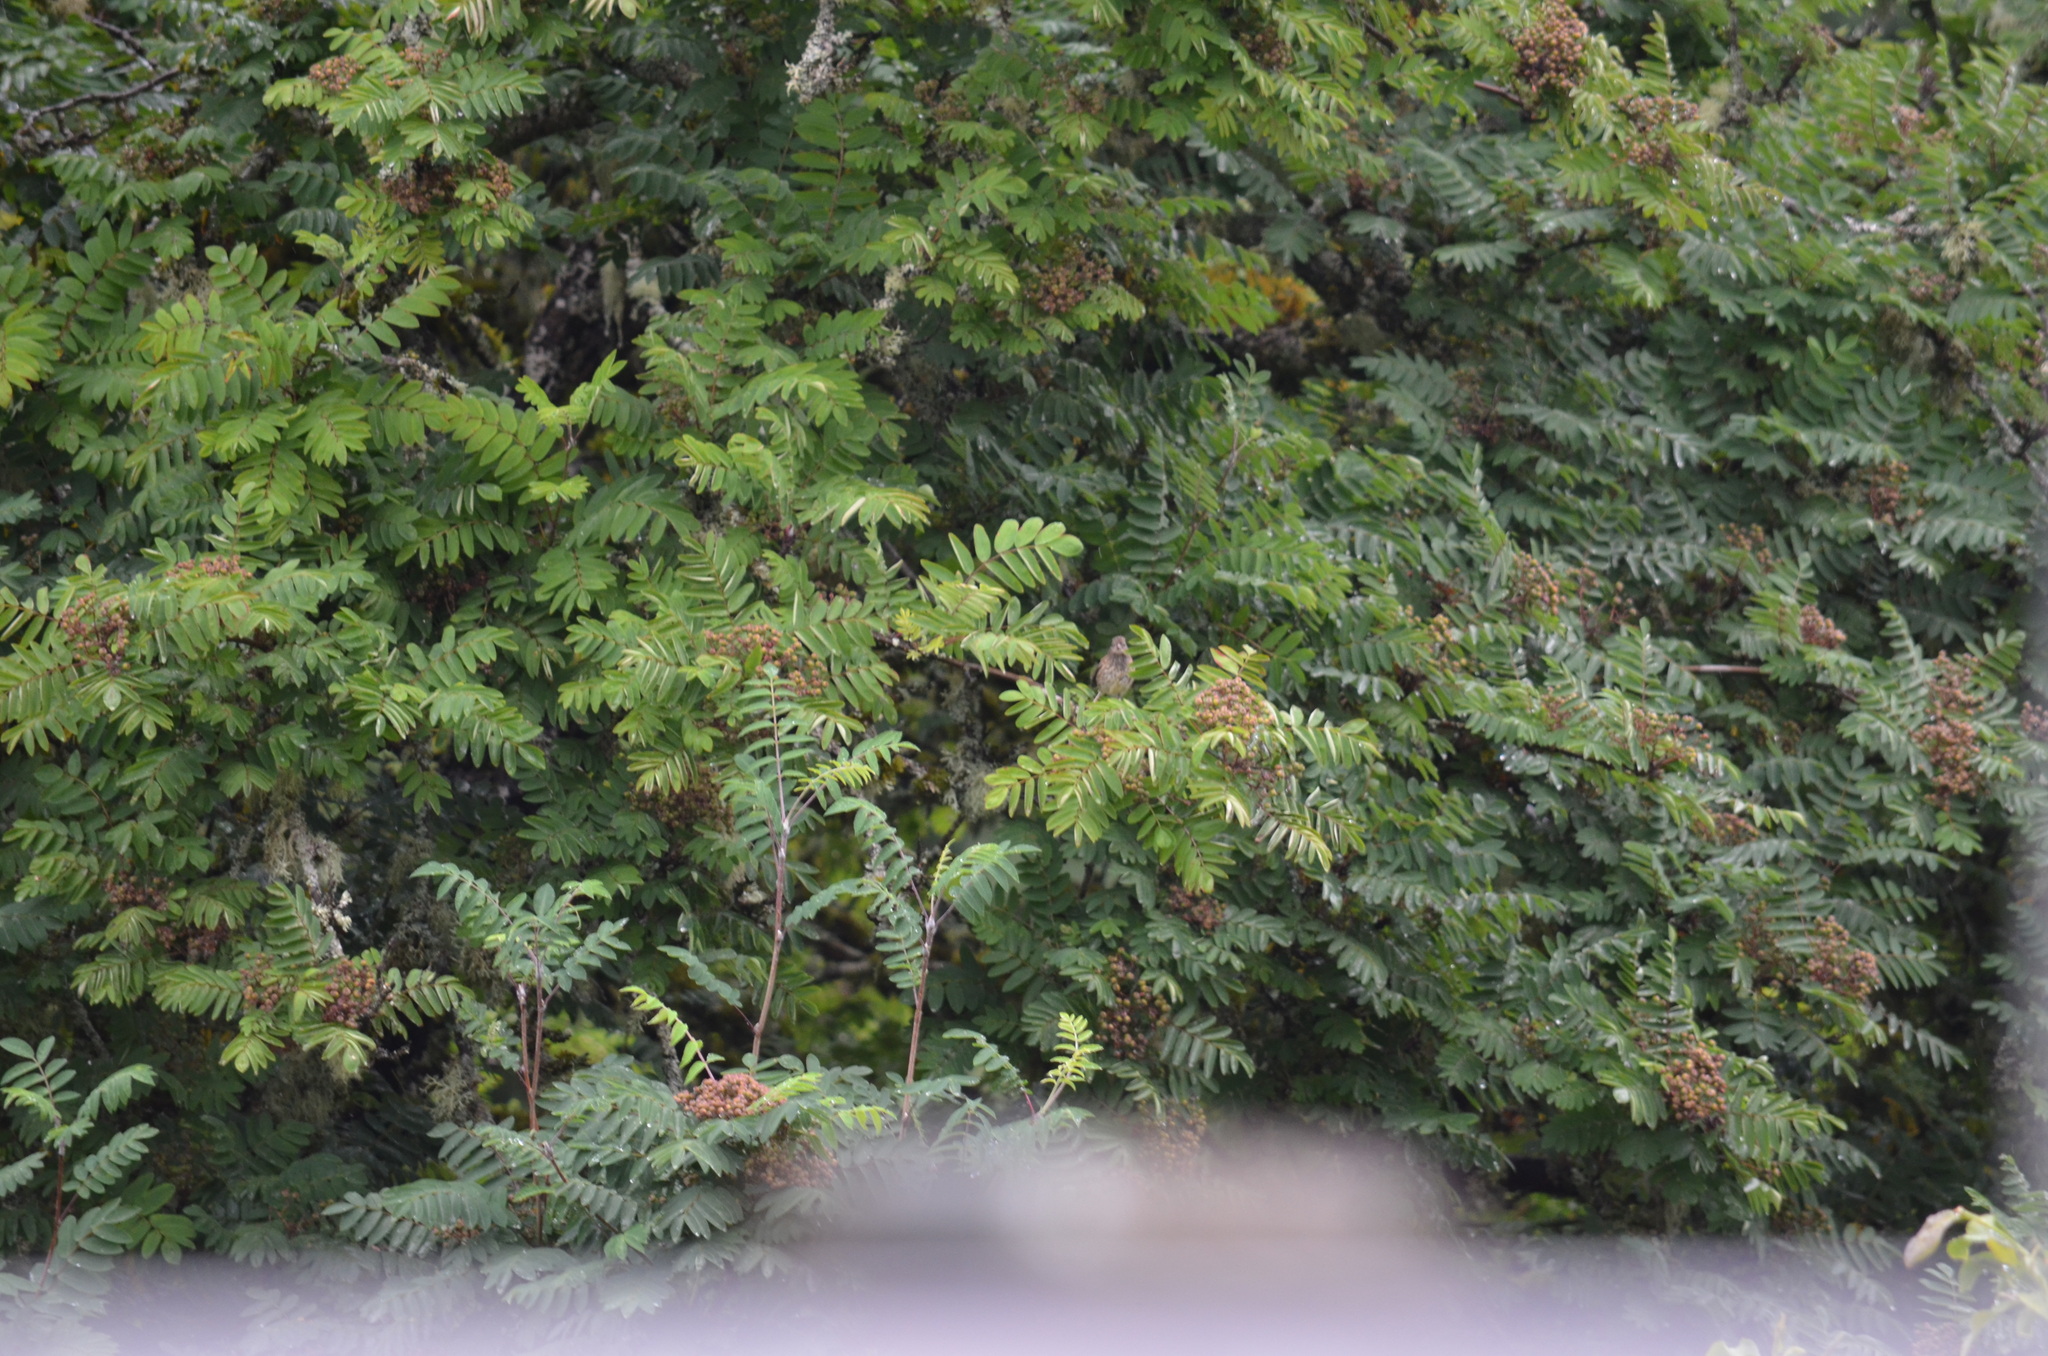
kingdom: Animalia
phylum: Chordata
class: Aves
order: Passeriformes
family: Passerellidae
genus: Junco
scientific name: Junco hyemalis
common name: Dark-eyed junco
